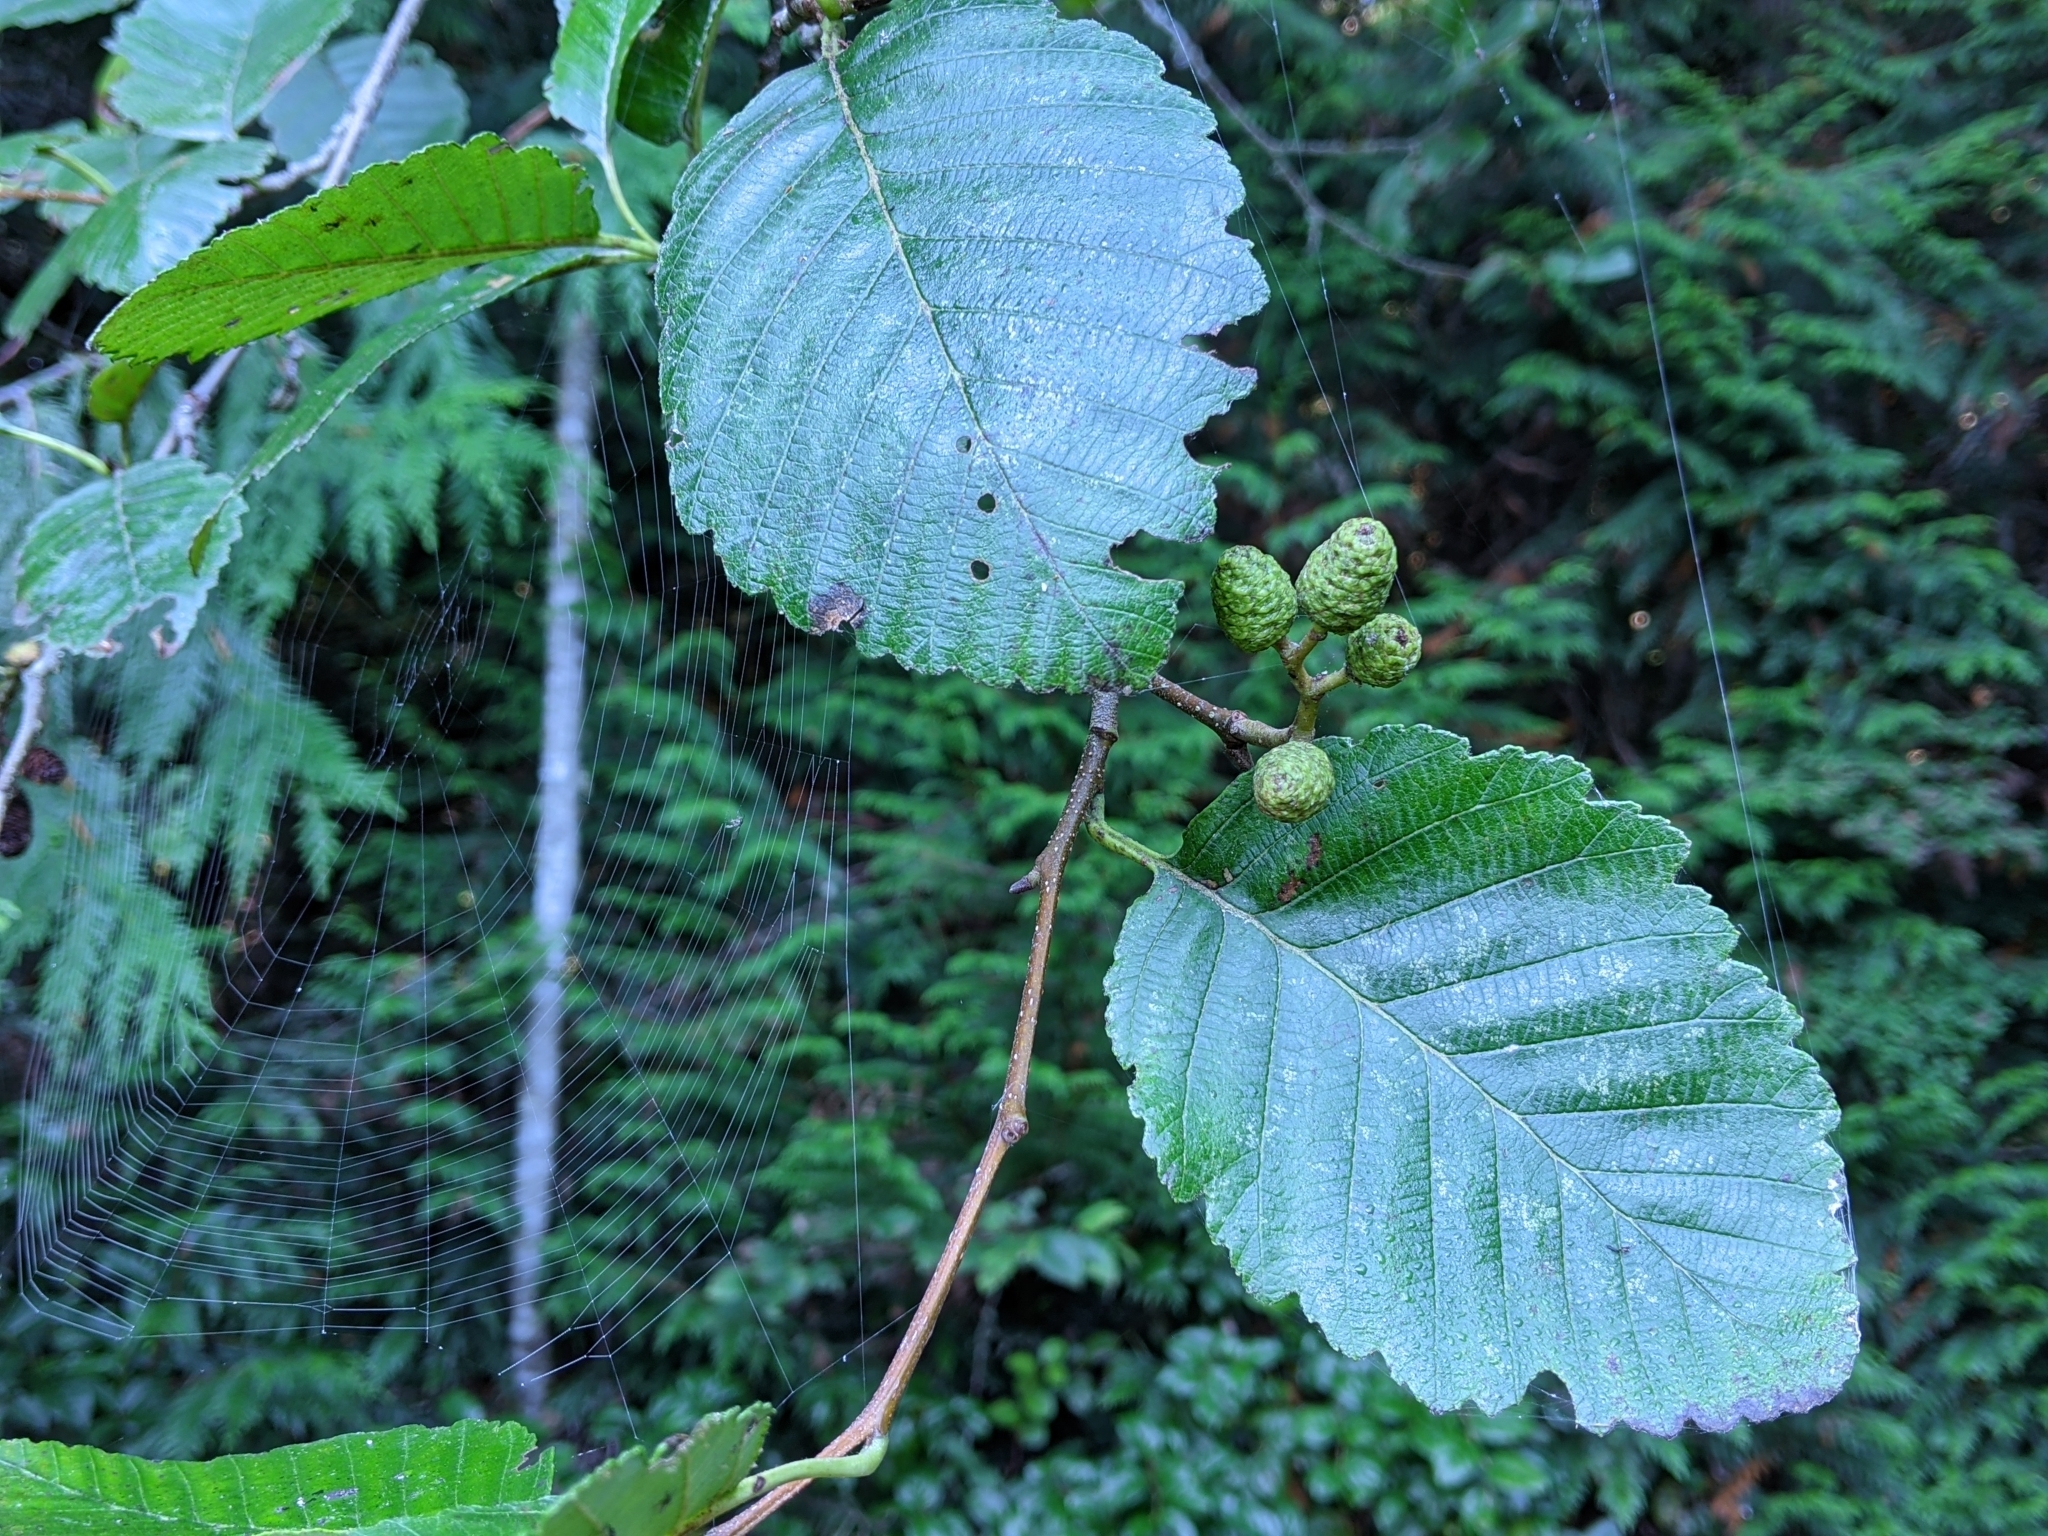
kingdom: Plantae
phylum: Tracheophyta
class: Magnoliopsida
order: Fagales
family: Betulaceae
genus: Alnus
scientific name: Alnus rubra
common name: Red alder
